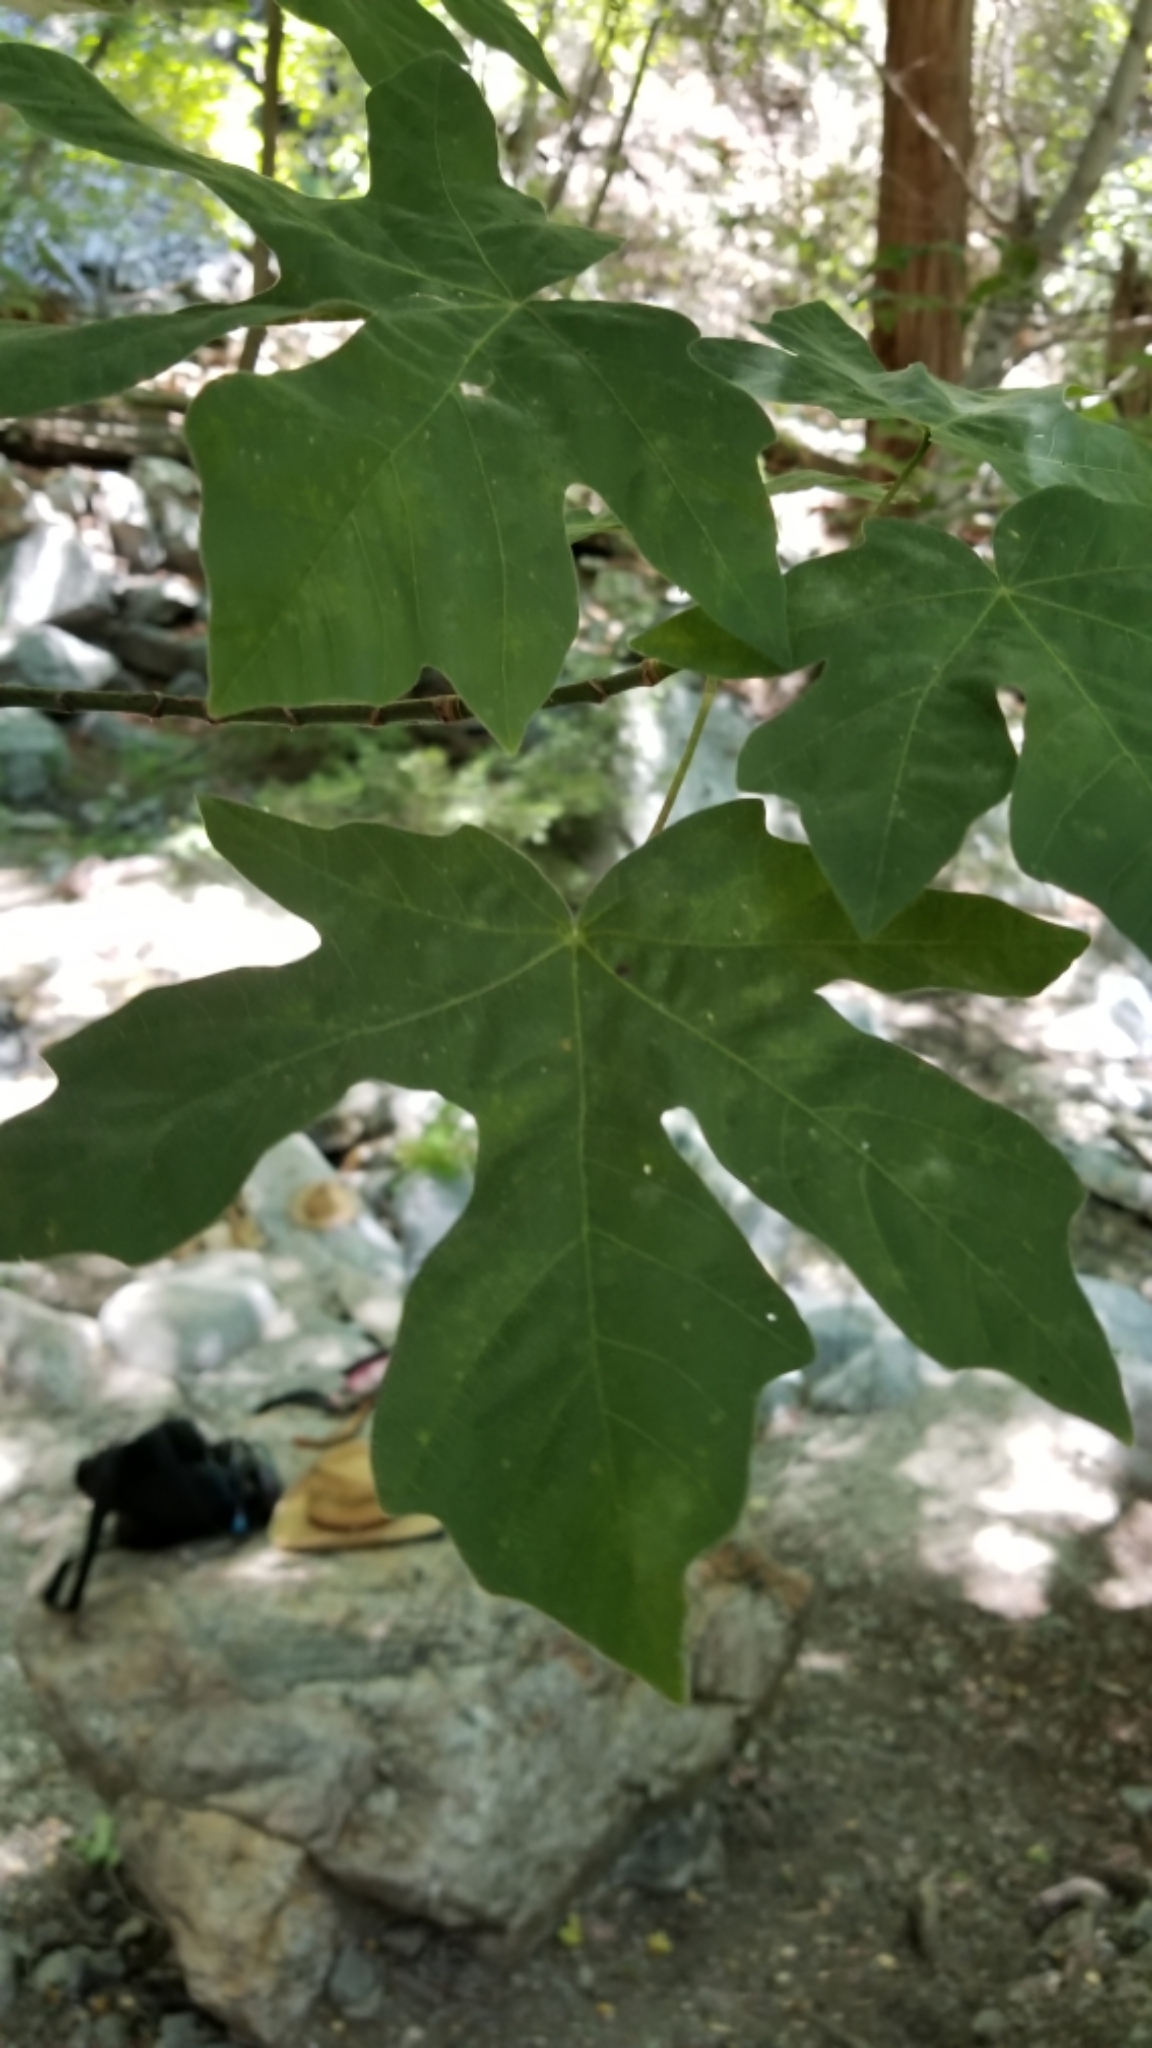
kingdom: Plantae
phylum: Tracheophyta
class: Magnoliopsida
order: Sapindales
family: Sapindaceae
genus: Acer
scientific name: Acer macrophyllum
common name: Oregon maple
